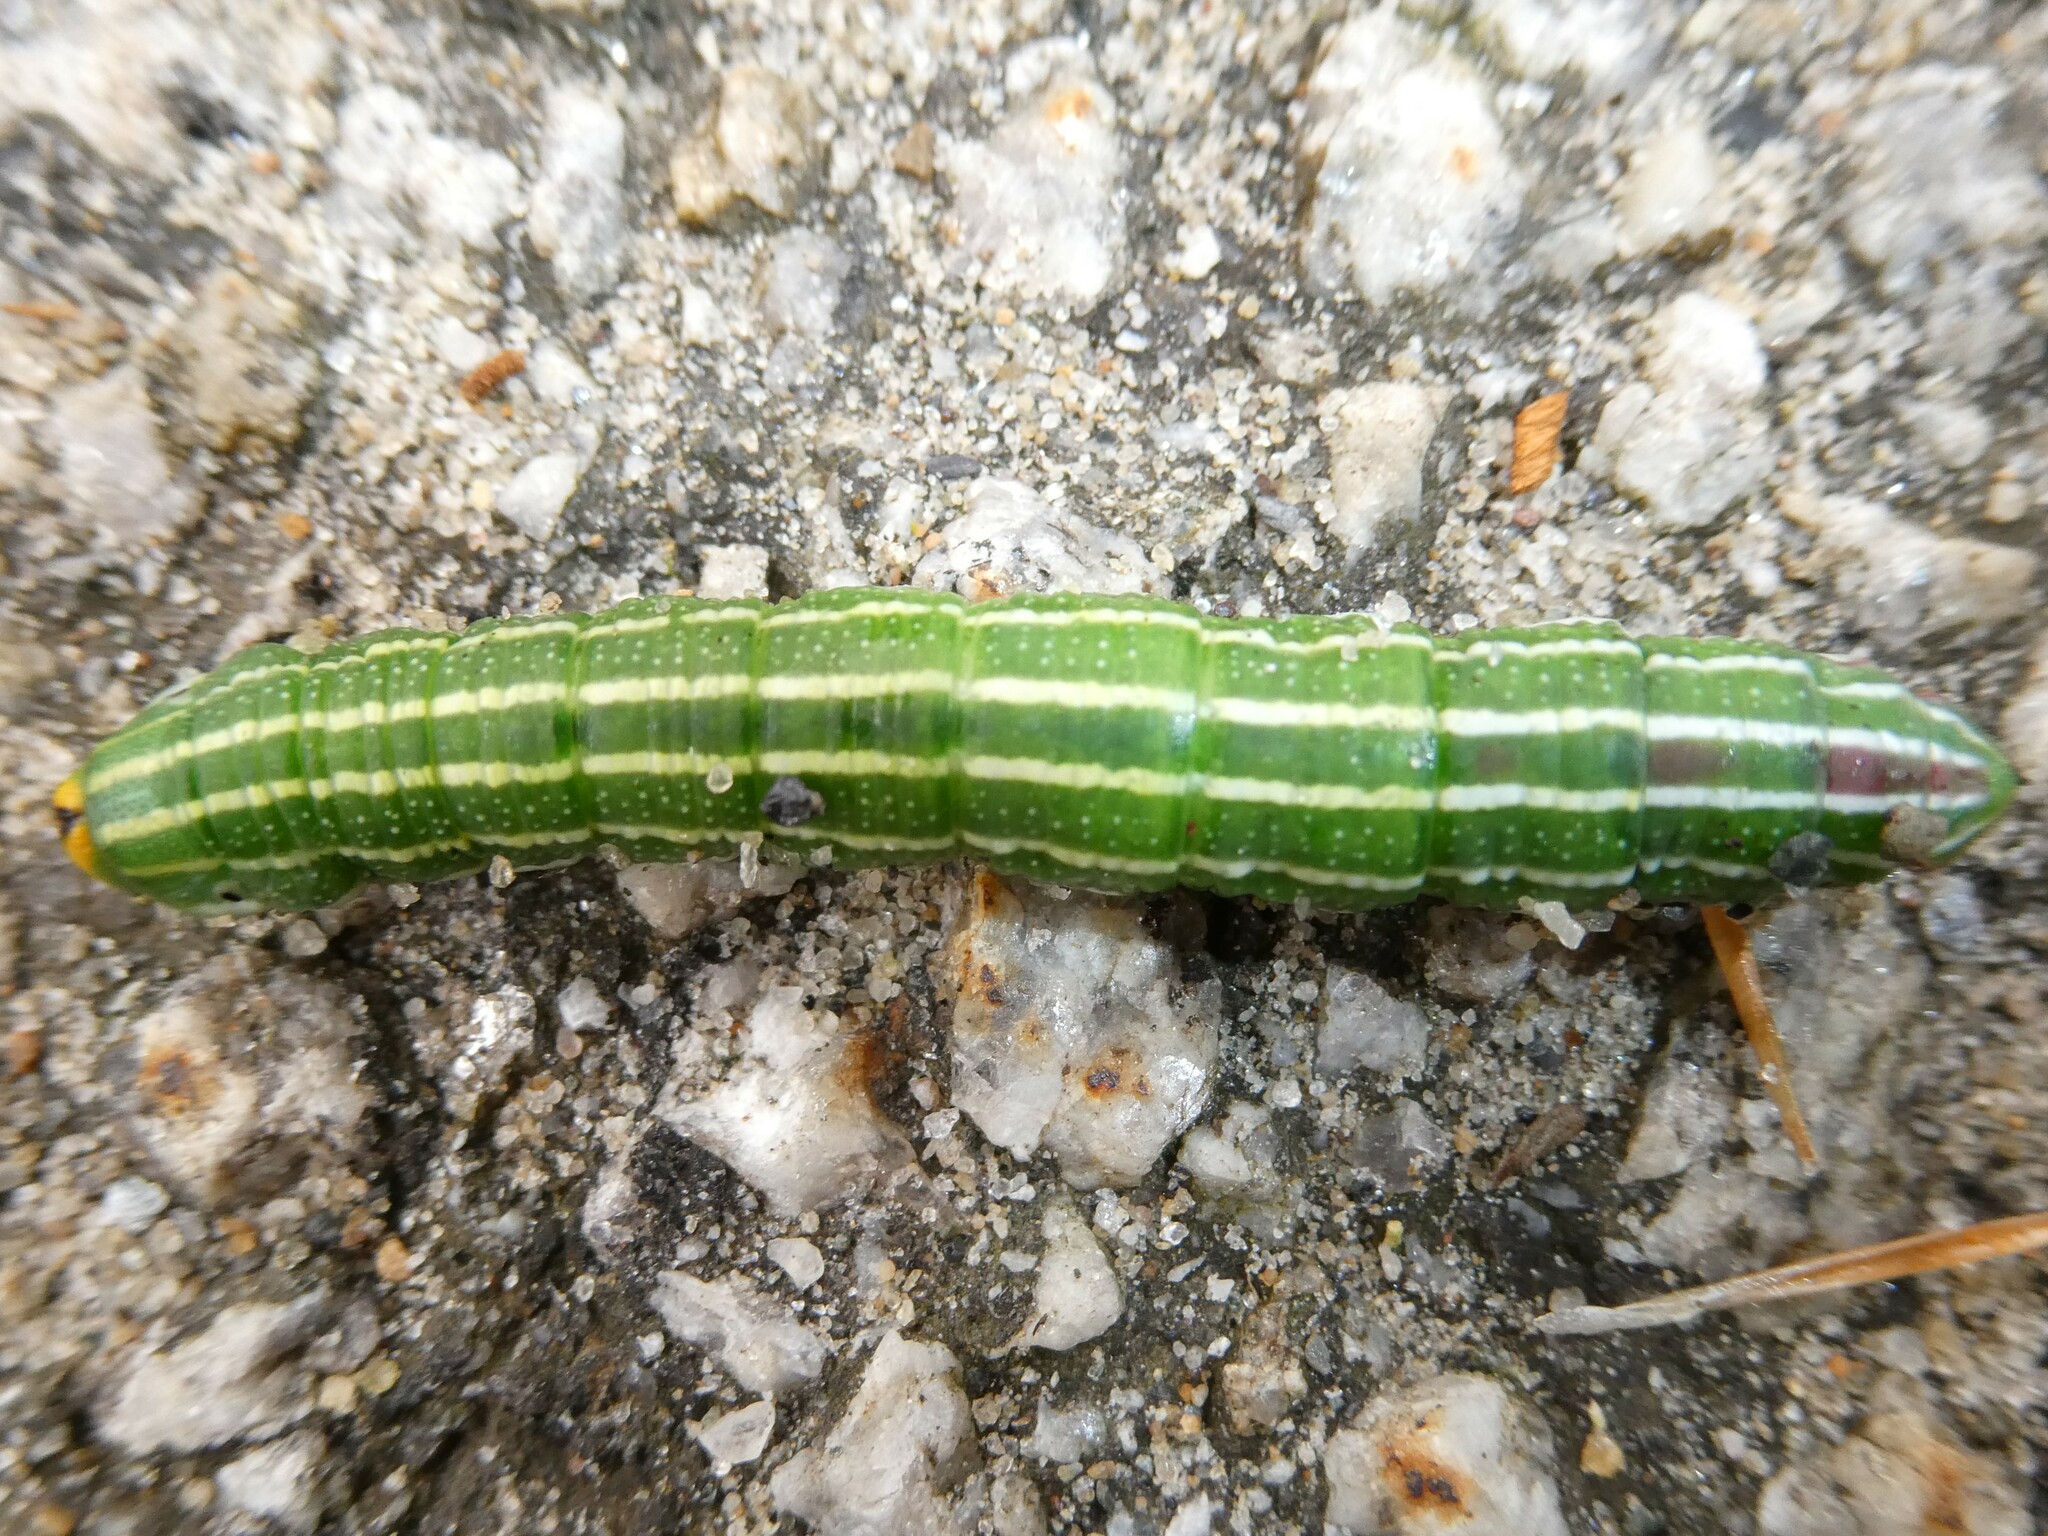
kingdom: Animalia
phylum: Arthropoda
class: Insecta
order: Lepidoptera
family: Sphingidae
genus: Lapara
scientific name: Lapara bombycoides
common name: Northern pine sphinx
